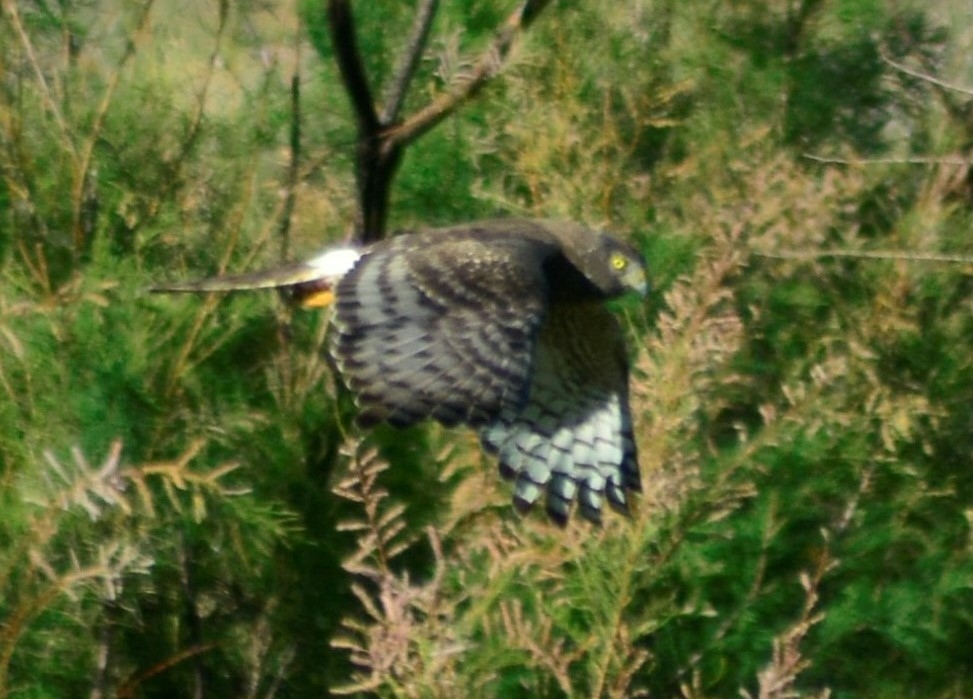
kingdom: Animalia
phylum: Chordata
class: Aves
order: Accipitriformes
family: Accipitridae
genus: Circus
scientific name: Circus cinereus
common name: Cinereous harrier
